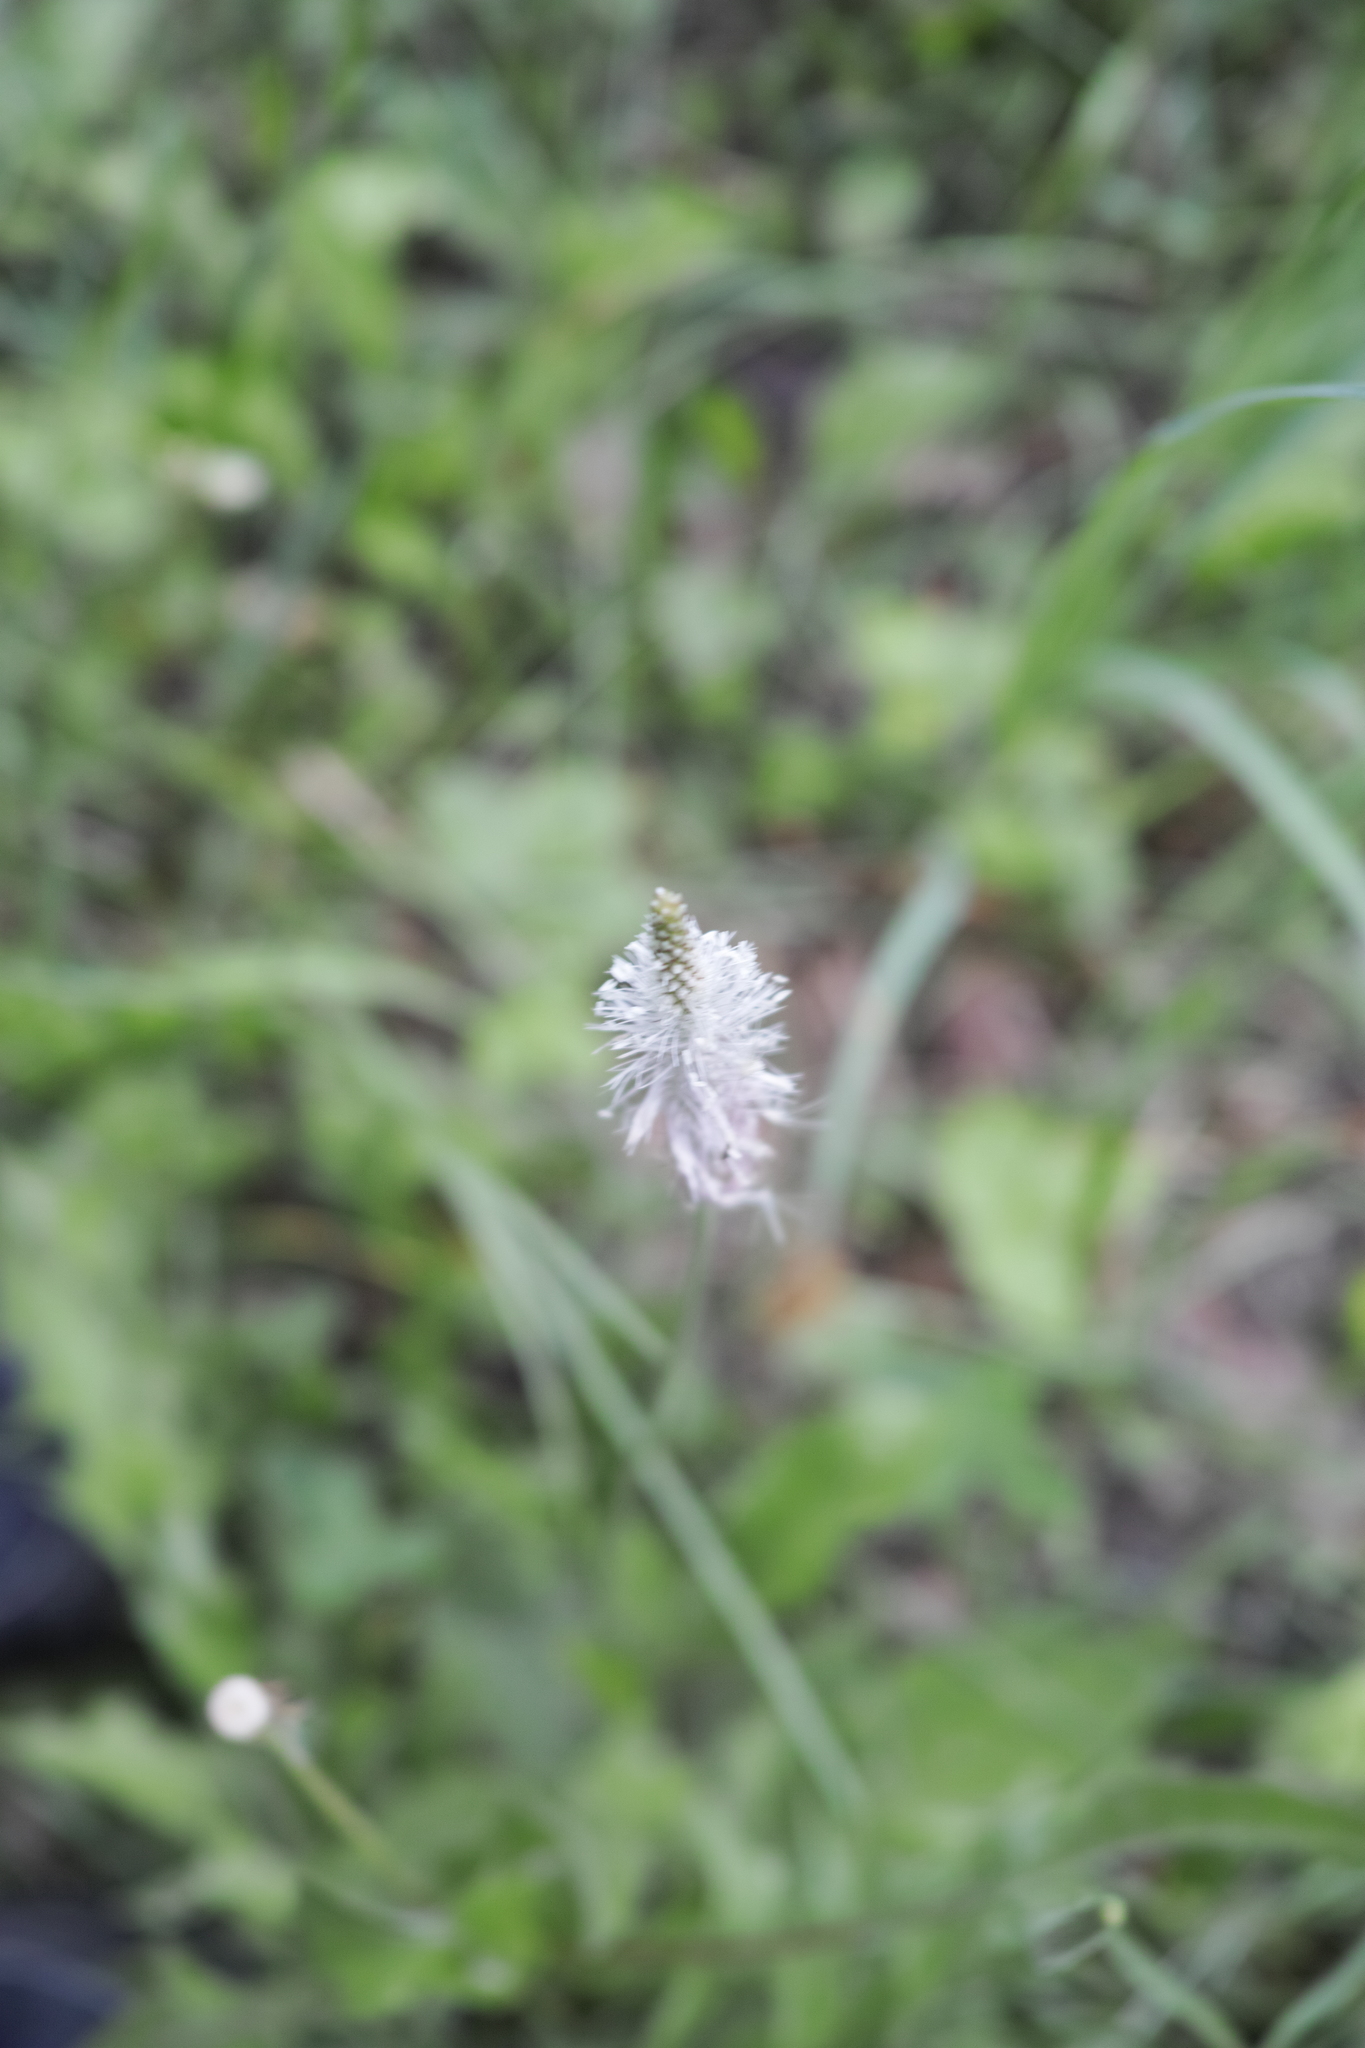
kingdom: Plantae
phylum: Tracheophyta
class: Magnoliopsida
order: Lamiales
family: Plantaginaceae
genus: Plantago
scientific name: Plantago media
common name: Hoary plantain
